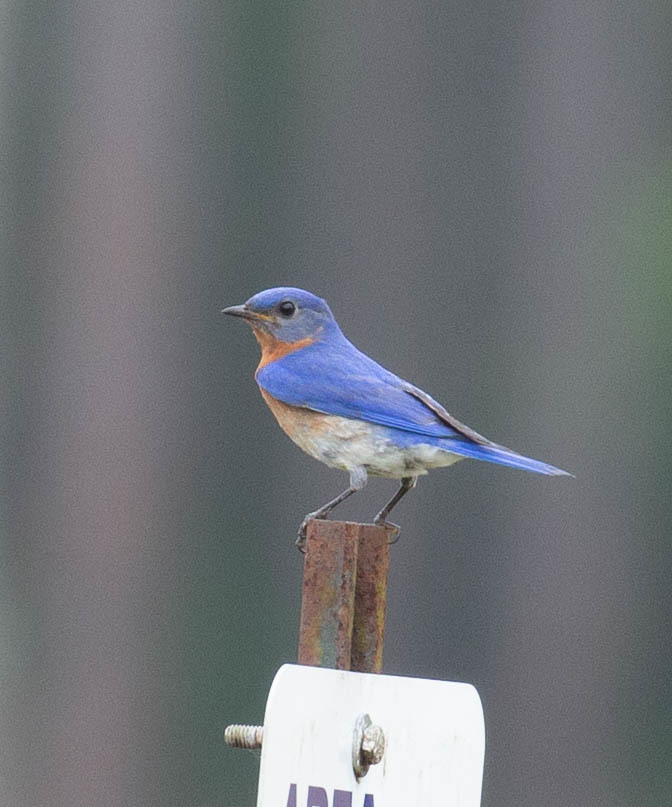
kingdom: Animalia
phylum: Chordata
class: Aves
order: Passeriformes
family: Turdidae
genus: Sialia
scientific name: Sialia sialis
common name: Eastern bluebird
